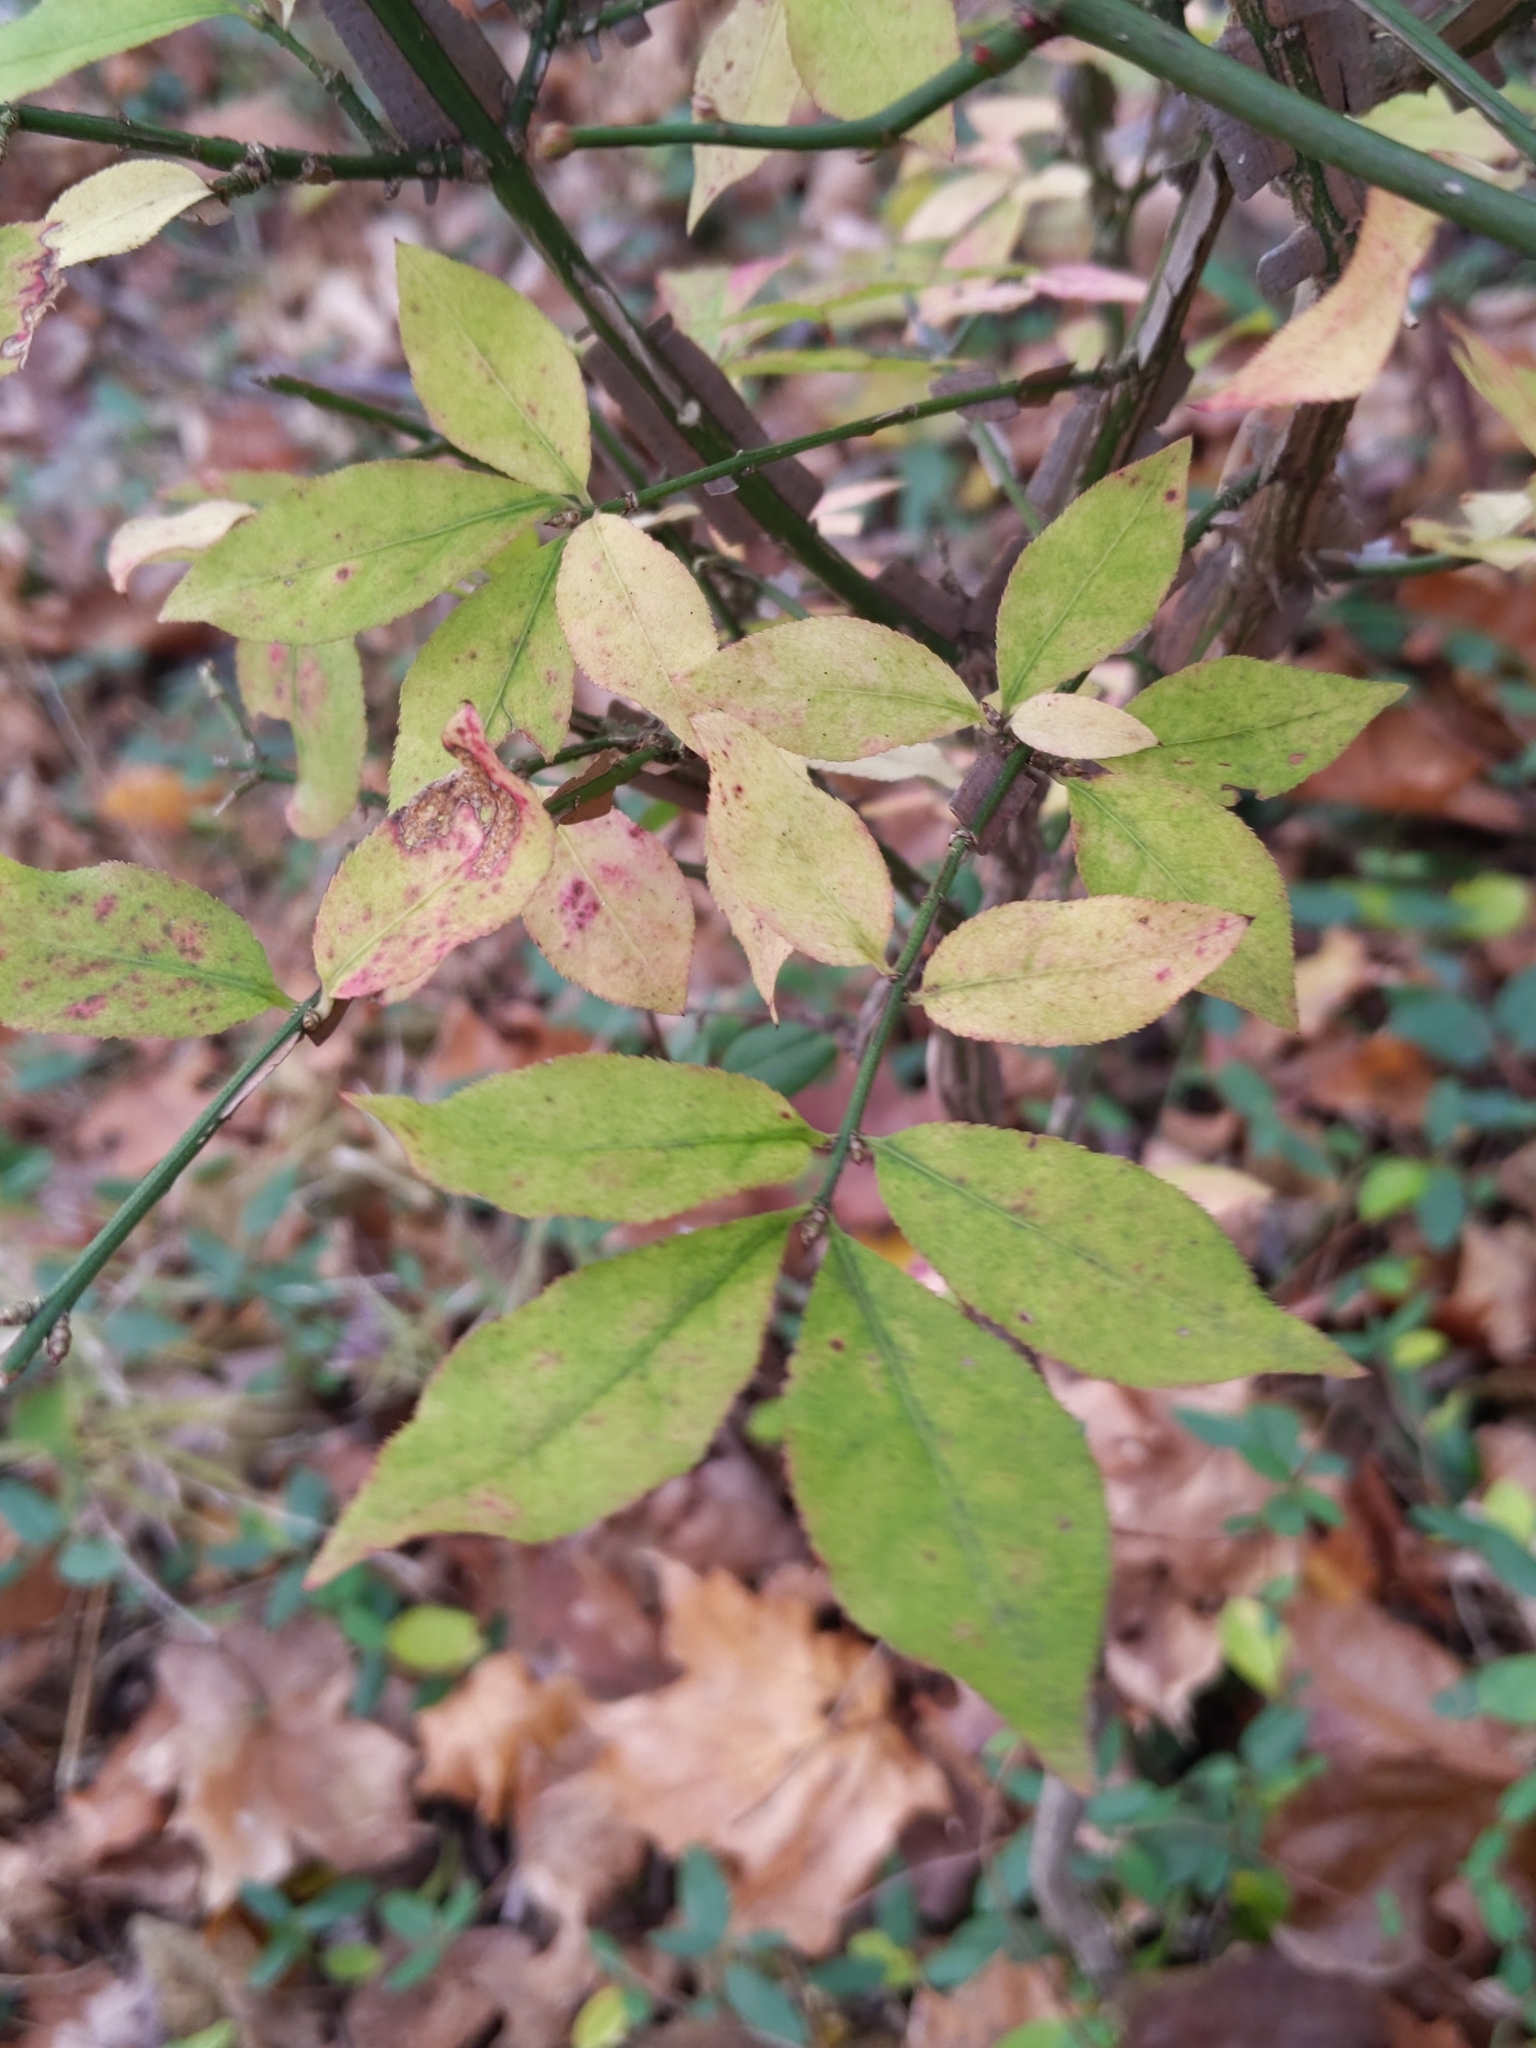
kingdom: Plantae
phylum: Tracheophyta
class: Magnoliopsida
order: Celastrales
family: Celastraceae
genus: Euonymus
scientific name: Euonymus alatus
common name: Winged euonymus
